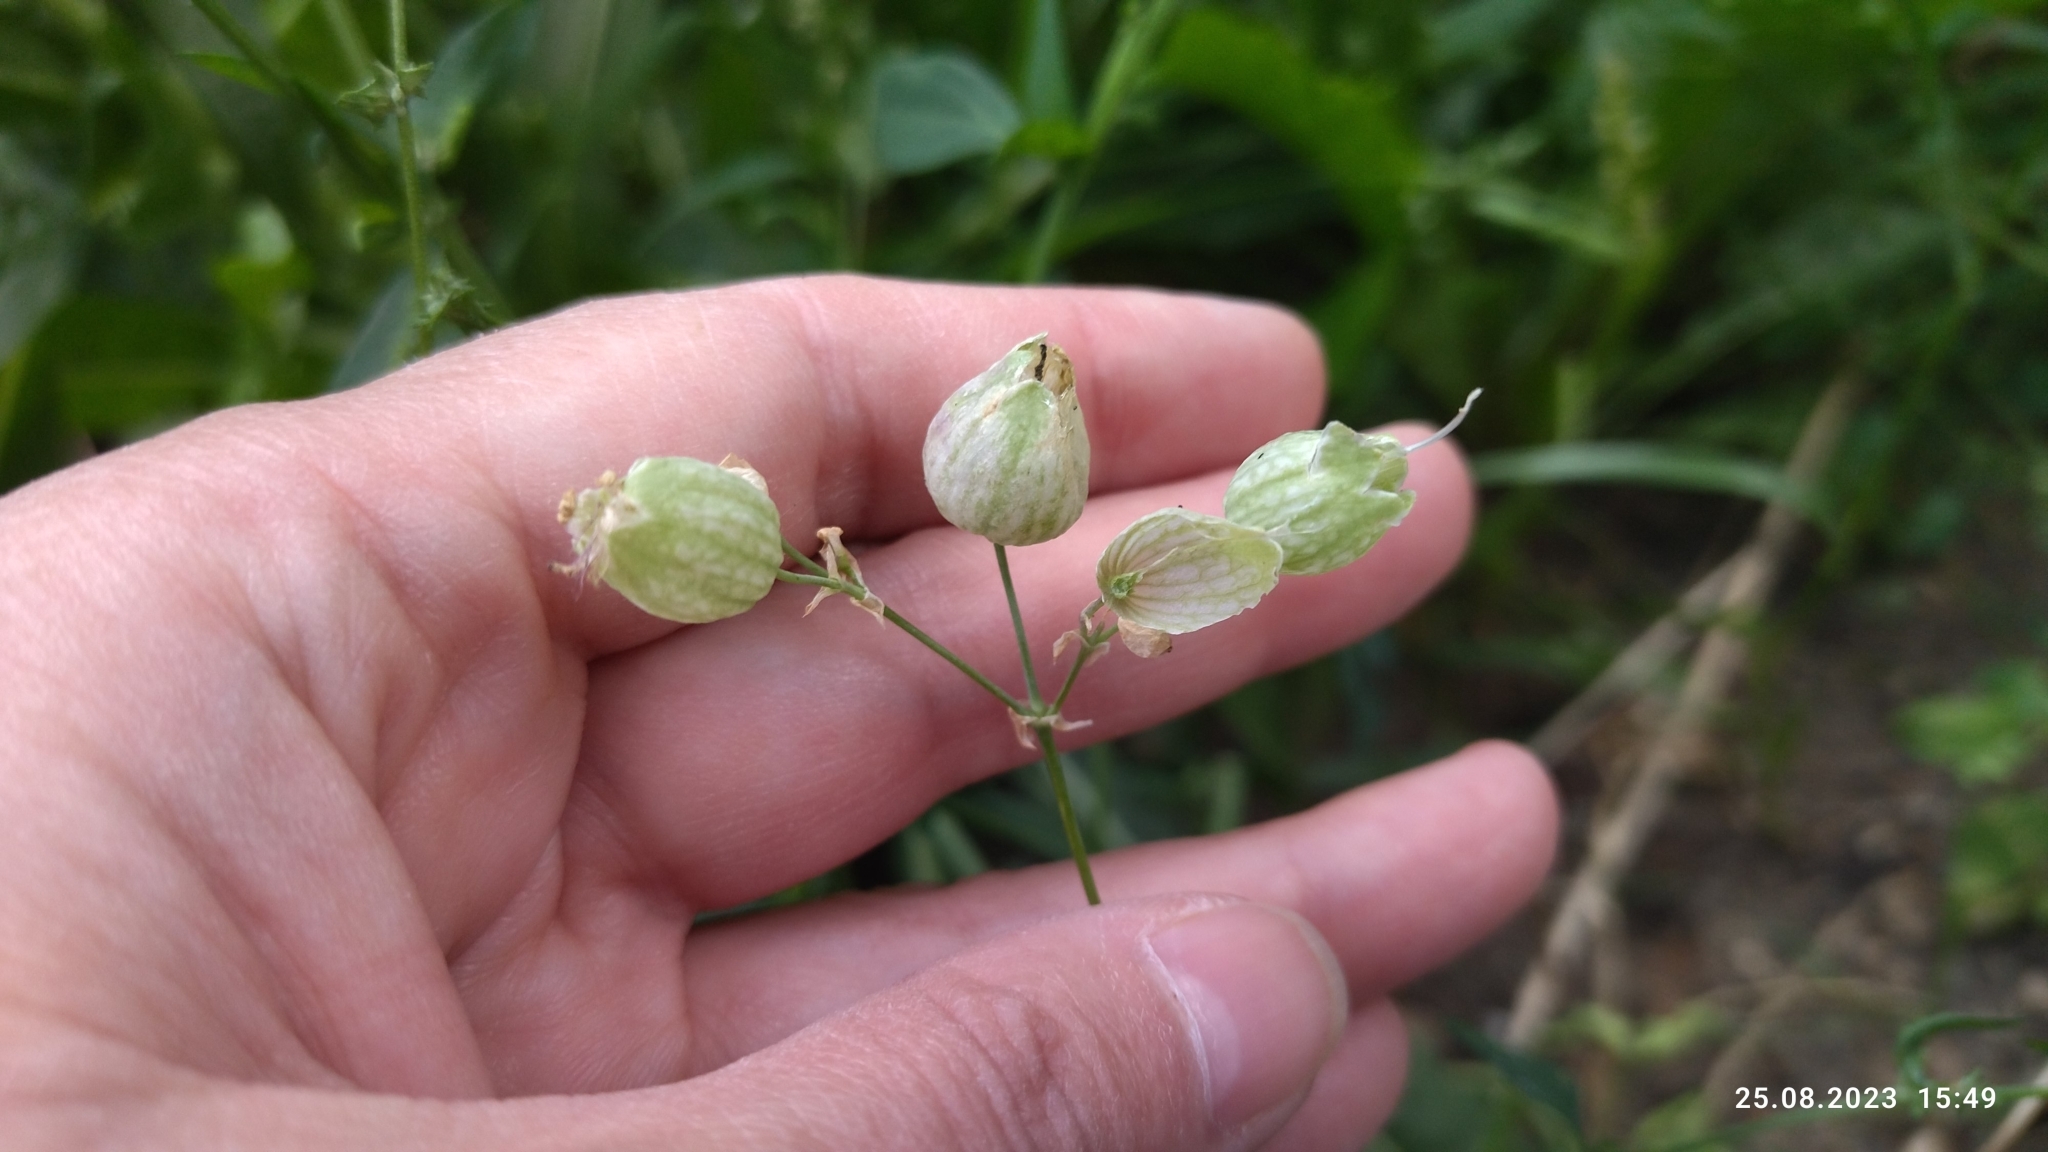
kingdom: Plantae
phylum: Tracheophyta
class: Magnoliopsida
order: Caryophyllales
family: Caryophyllaceae
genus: Silene
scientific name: Silene vulgaris
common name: Bladder campion
